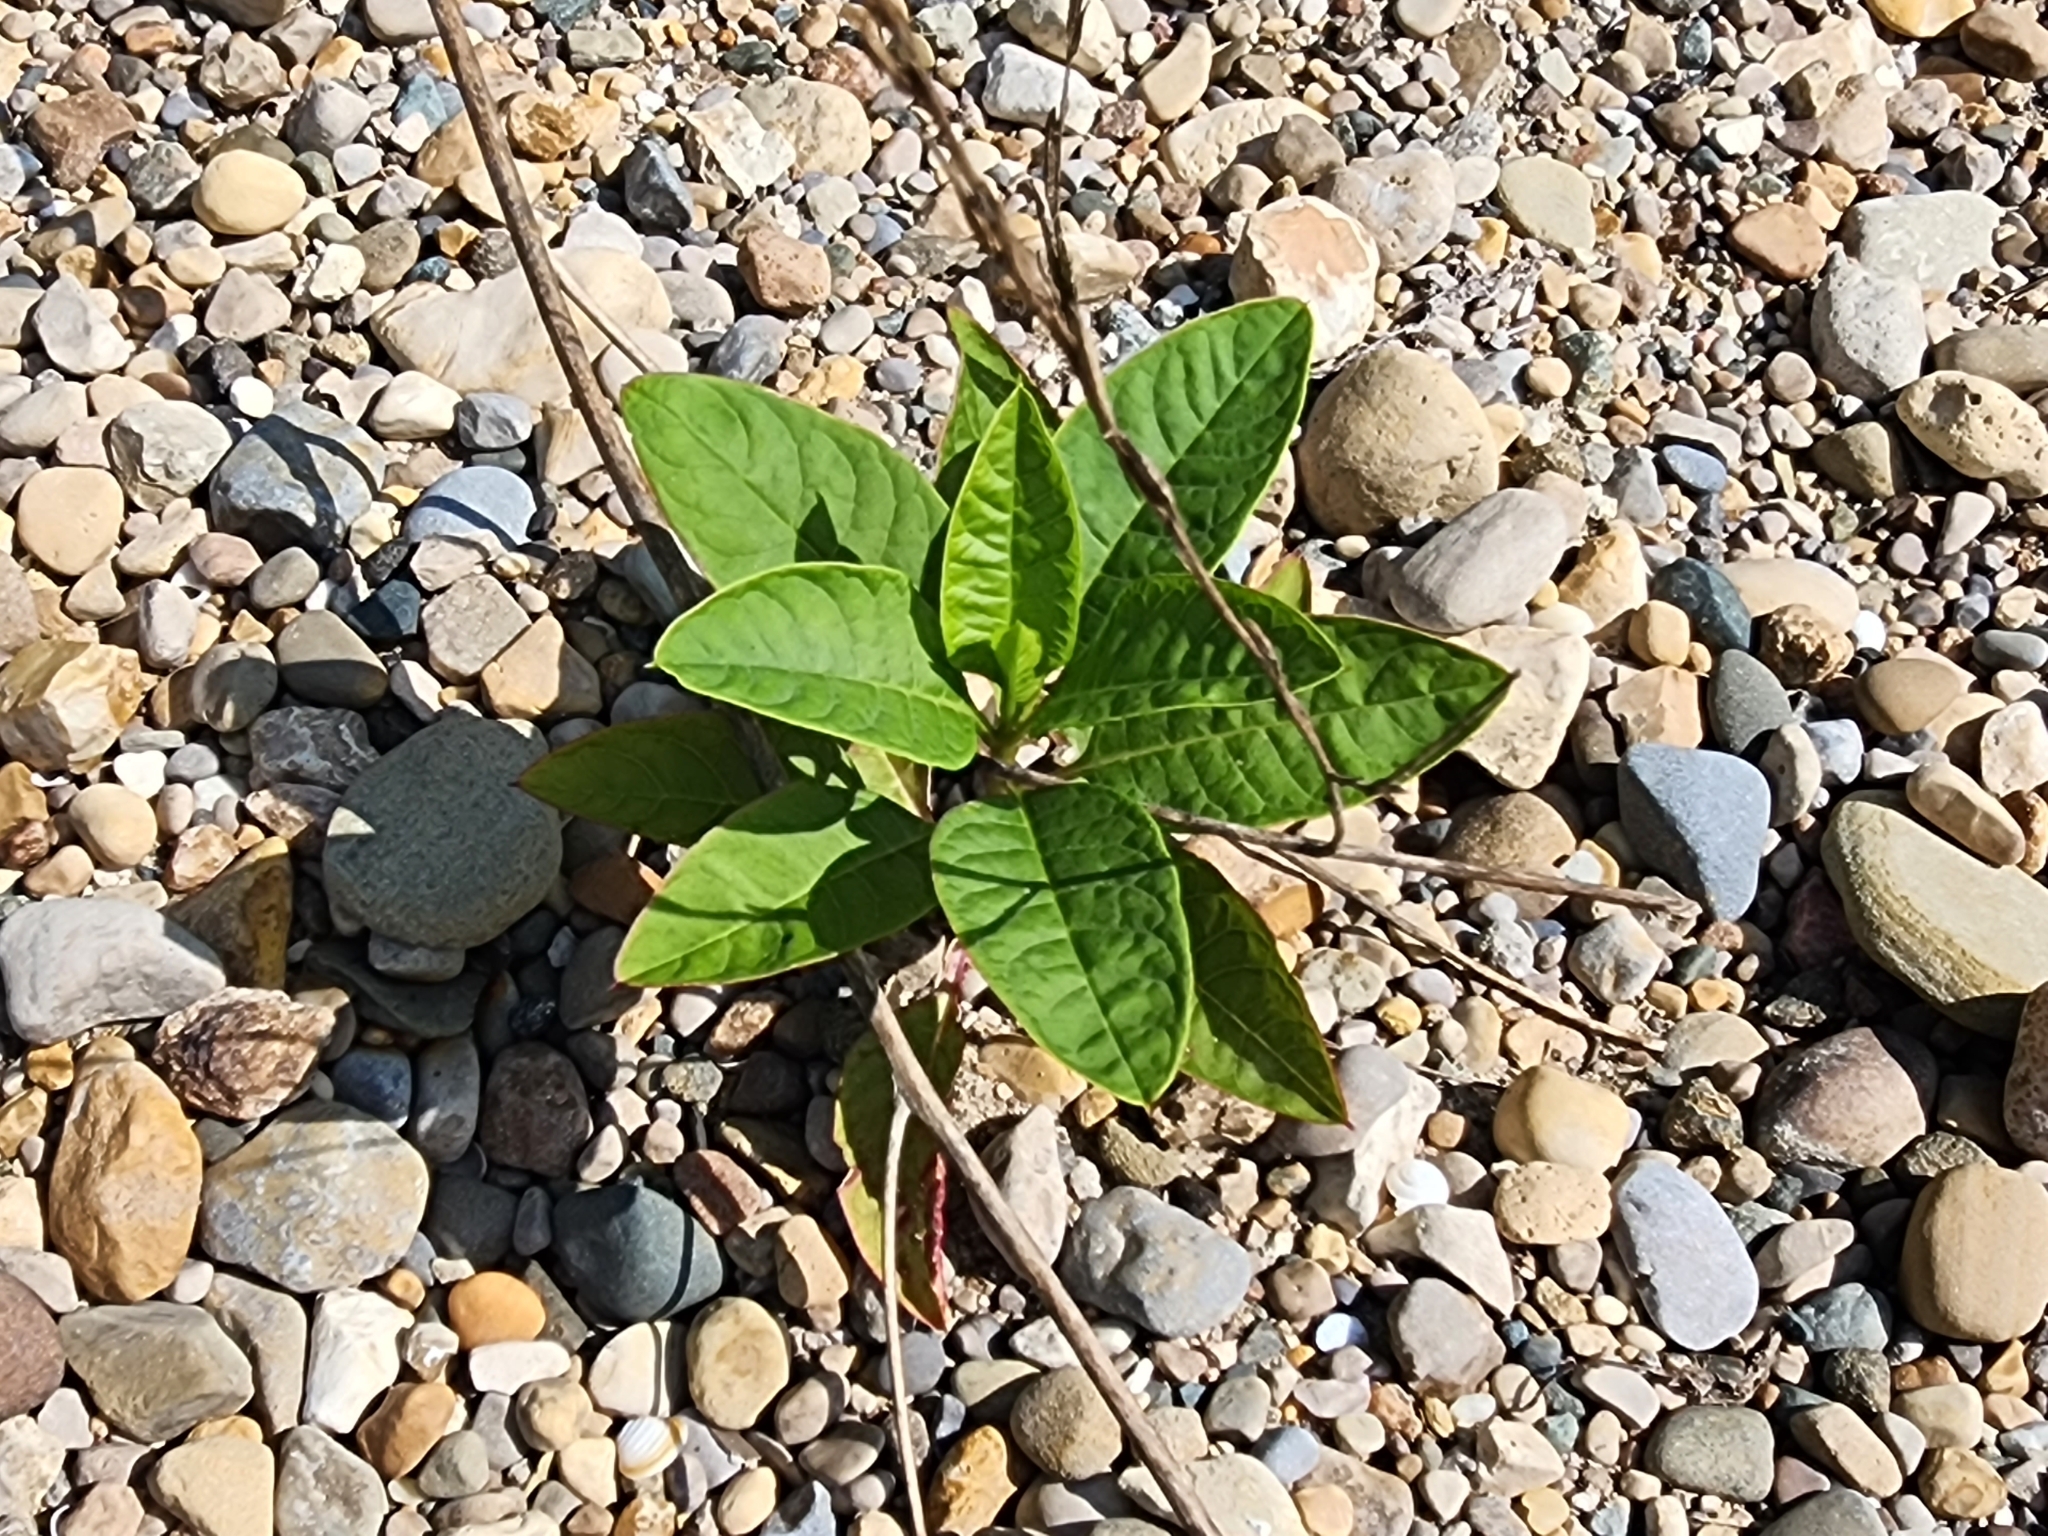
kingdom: Plantae
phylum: Tracheophyta
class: Magnoliopsida
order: Caryophyllales
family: Phytolaccaceae
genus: Phytolacca
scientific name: Phytolacca americana
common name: American pokeweed
